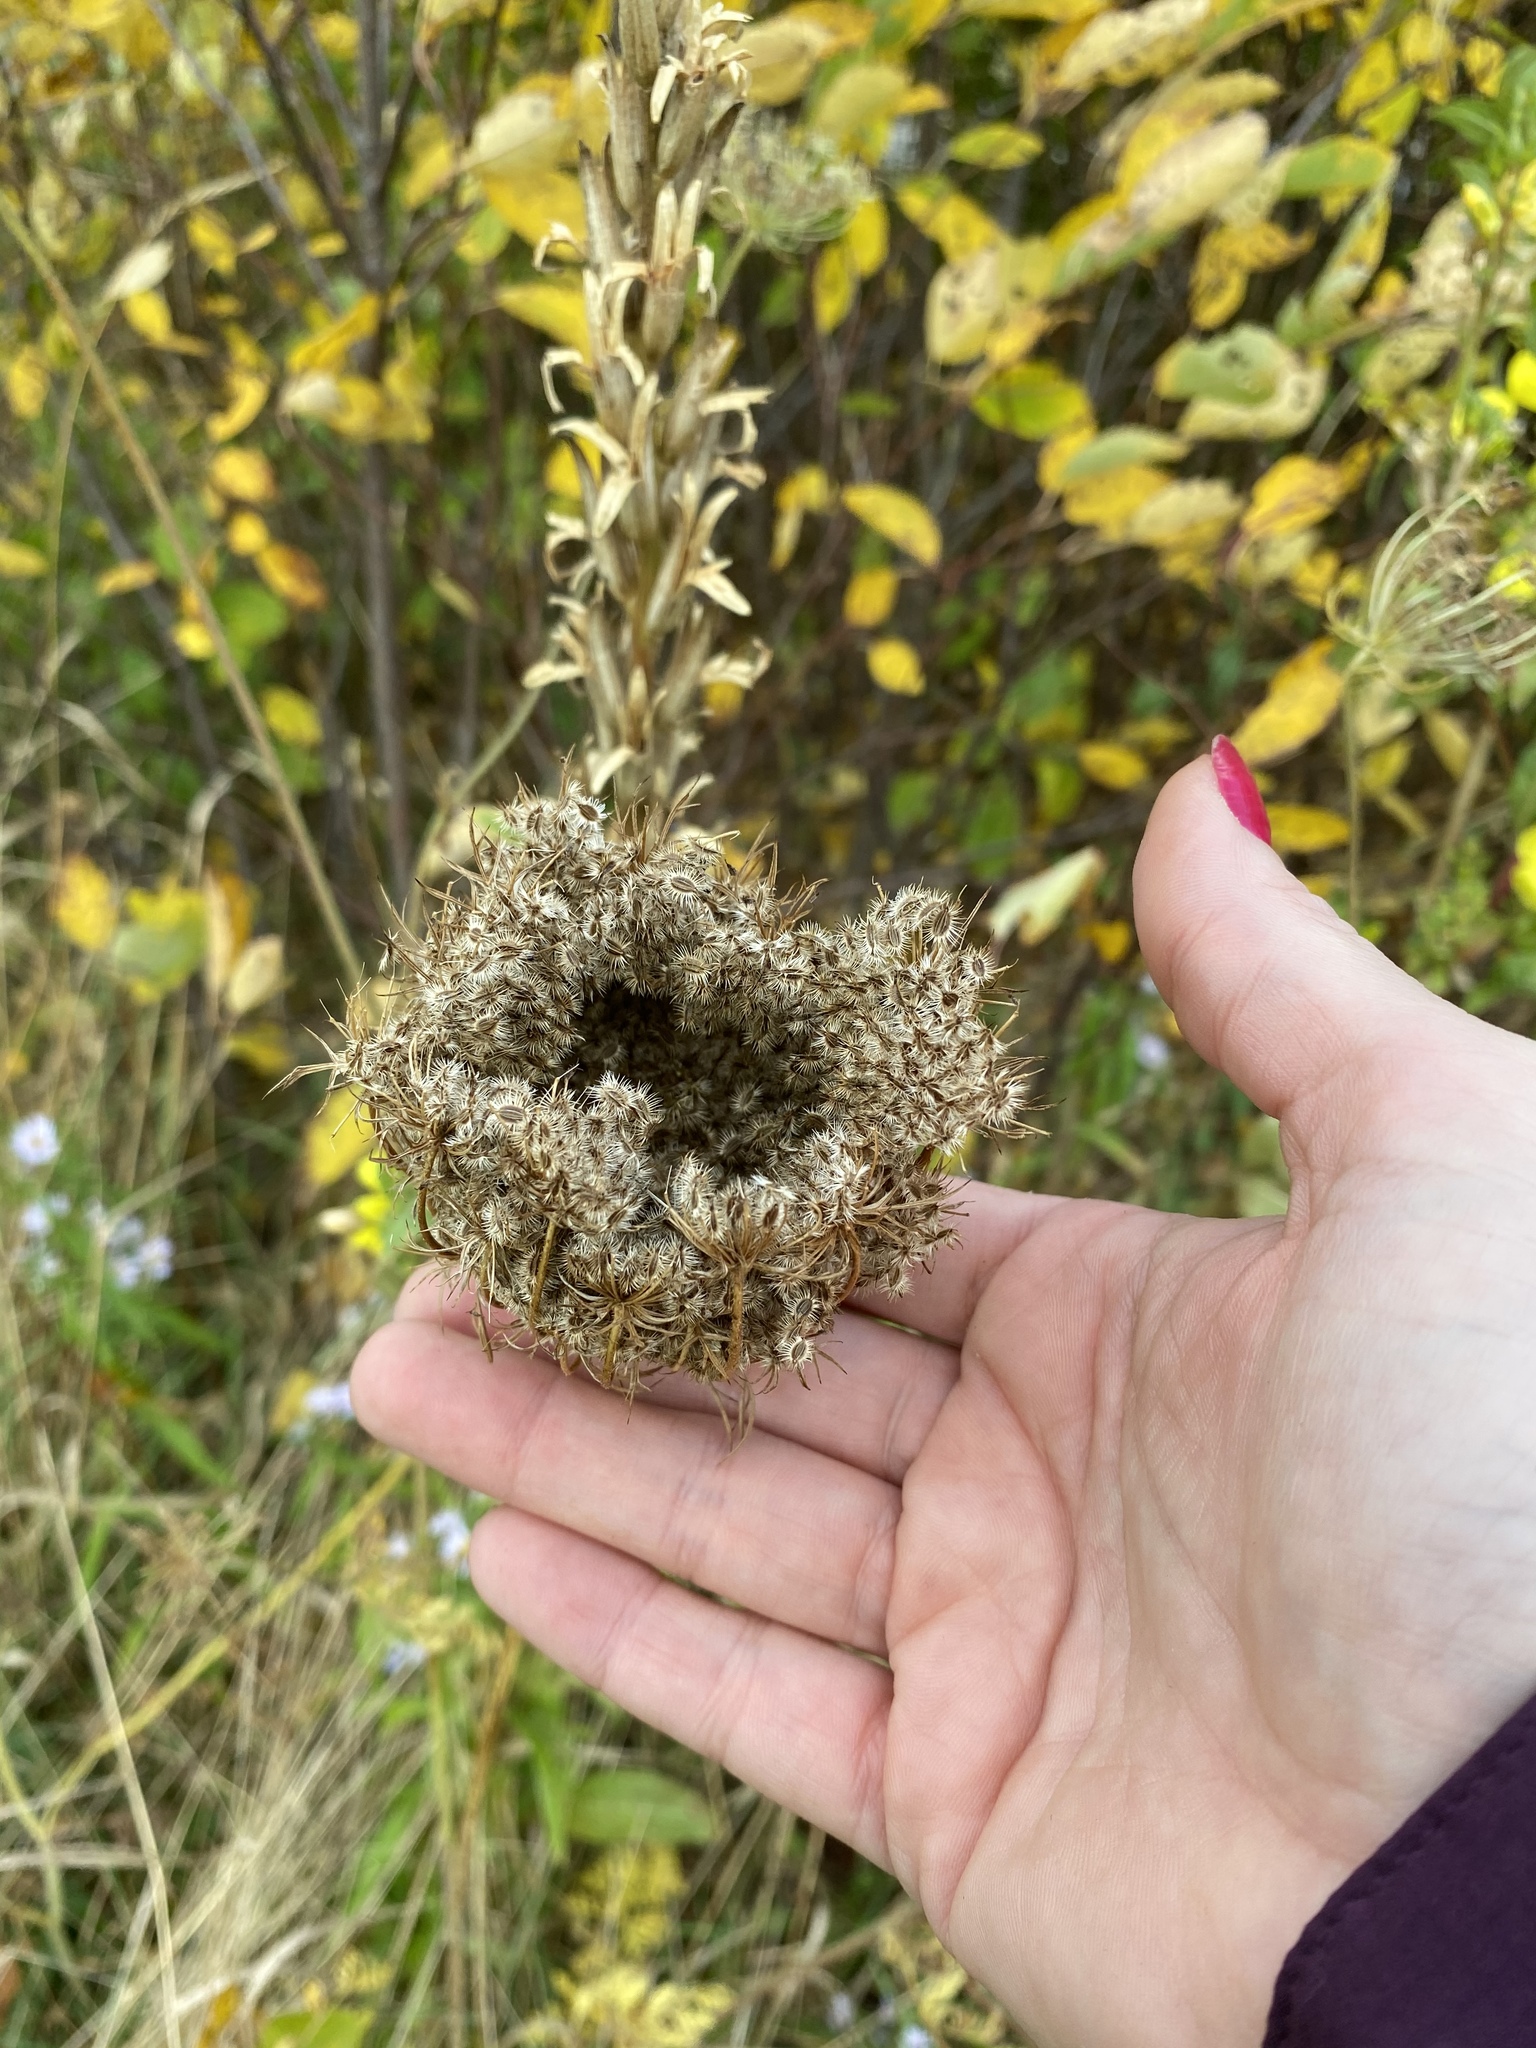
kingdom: Plantae
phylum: Tracheophyta
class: Magnoliopsida
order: Apiales
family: Apiaceae
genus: Daucus
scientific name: Daucus carota
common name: Wild carrot
